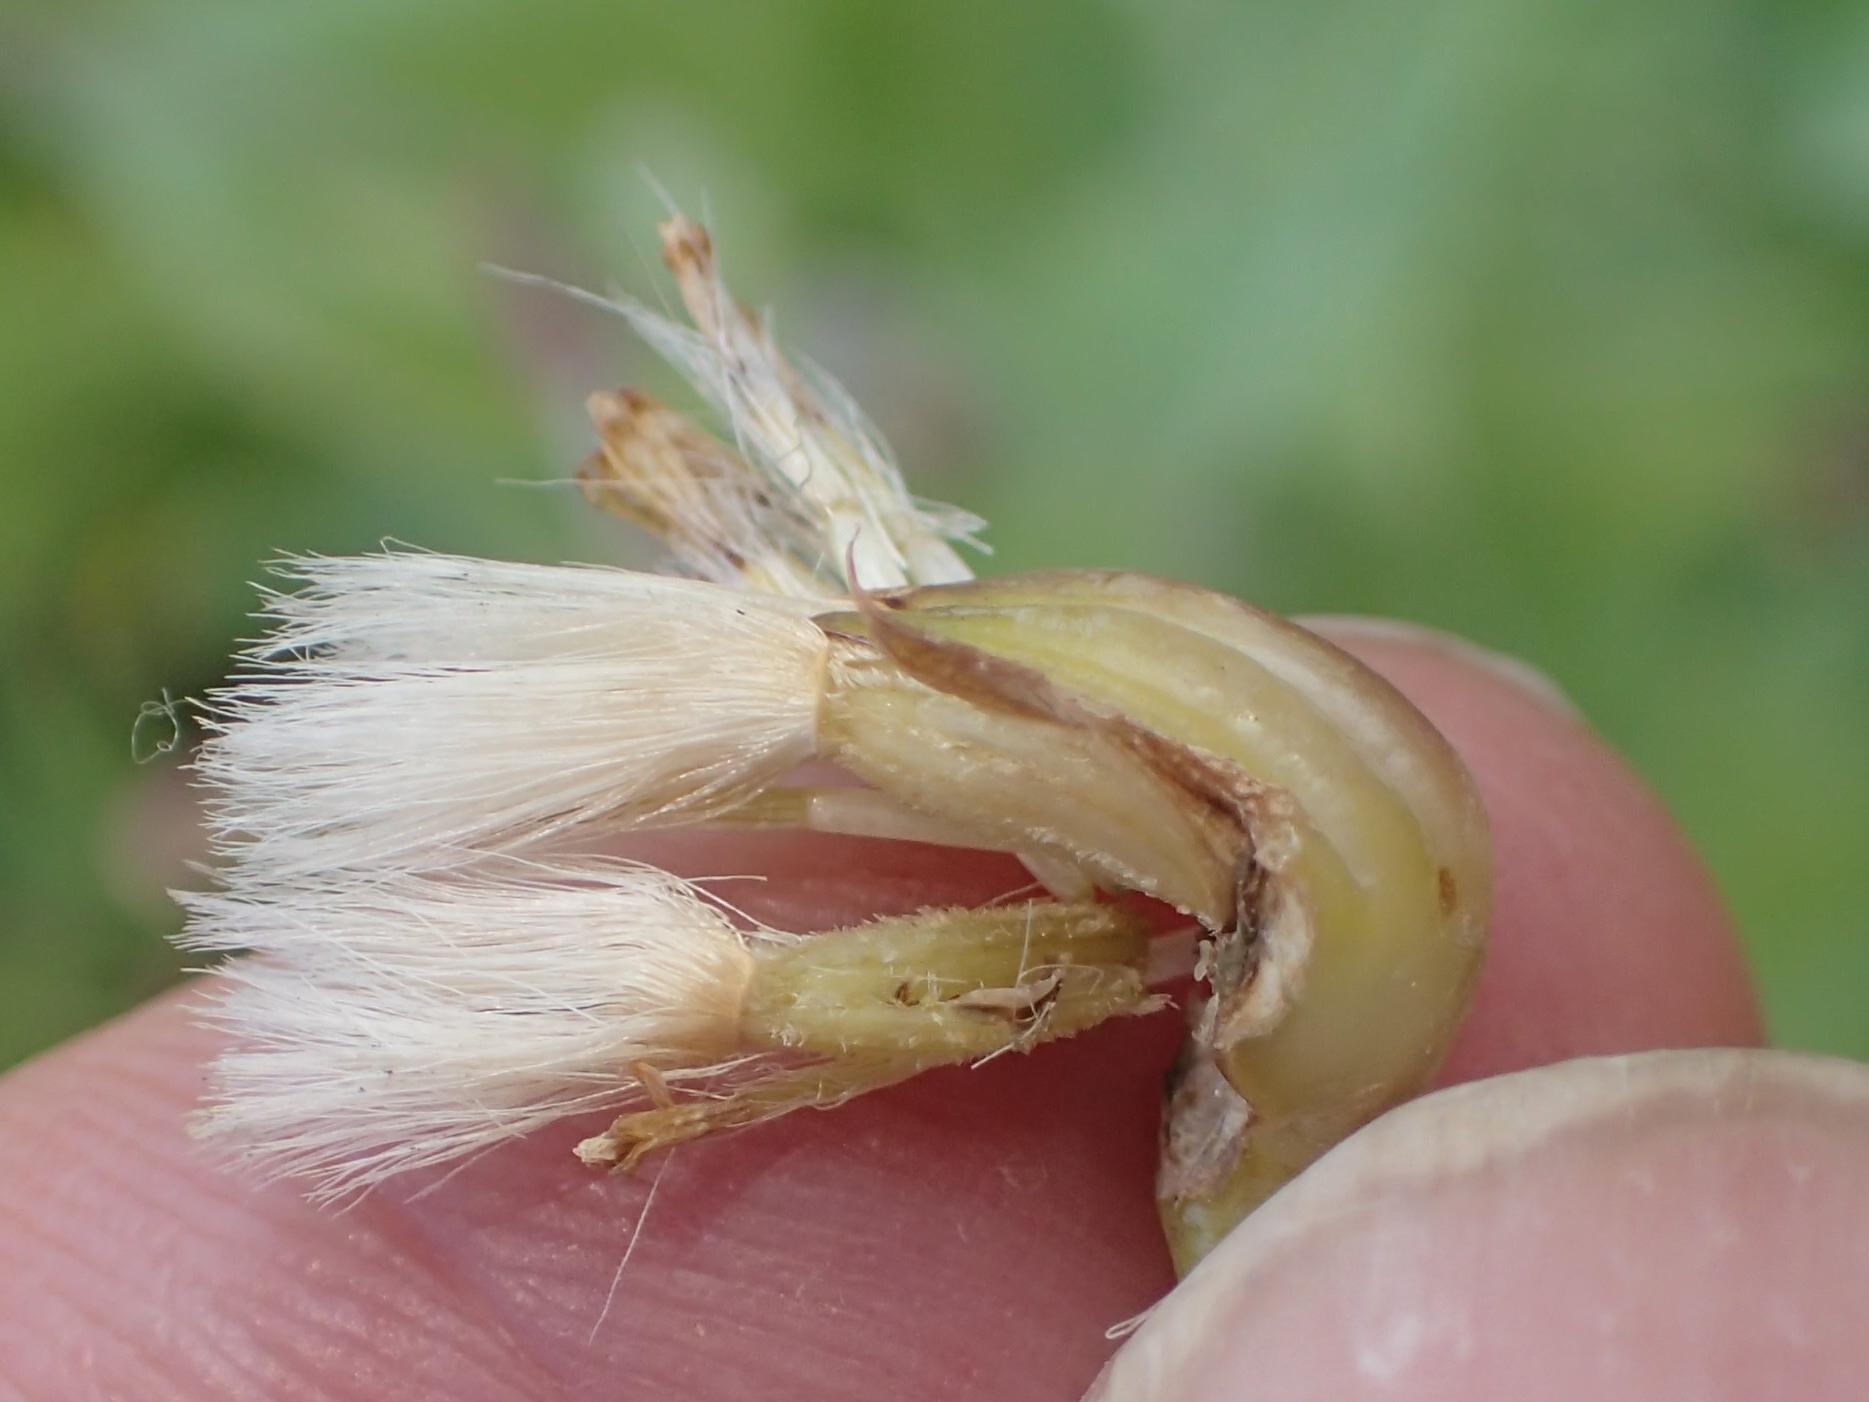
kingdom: Plantae
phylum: Tracheophyta
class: Magnoliopsida
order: Asterales
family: Asteraceae
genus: Othonna
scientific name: Othonna rosea
